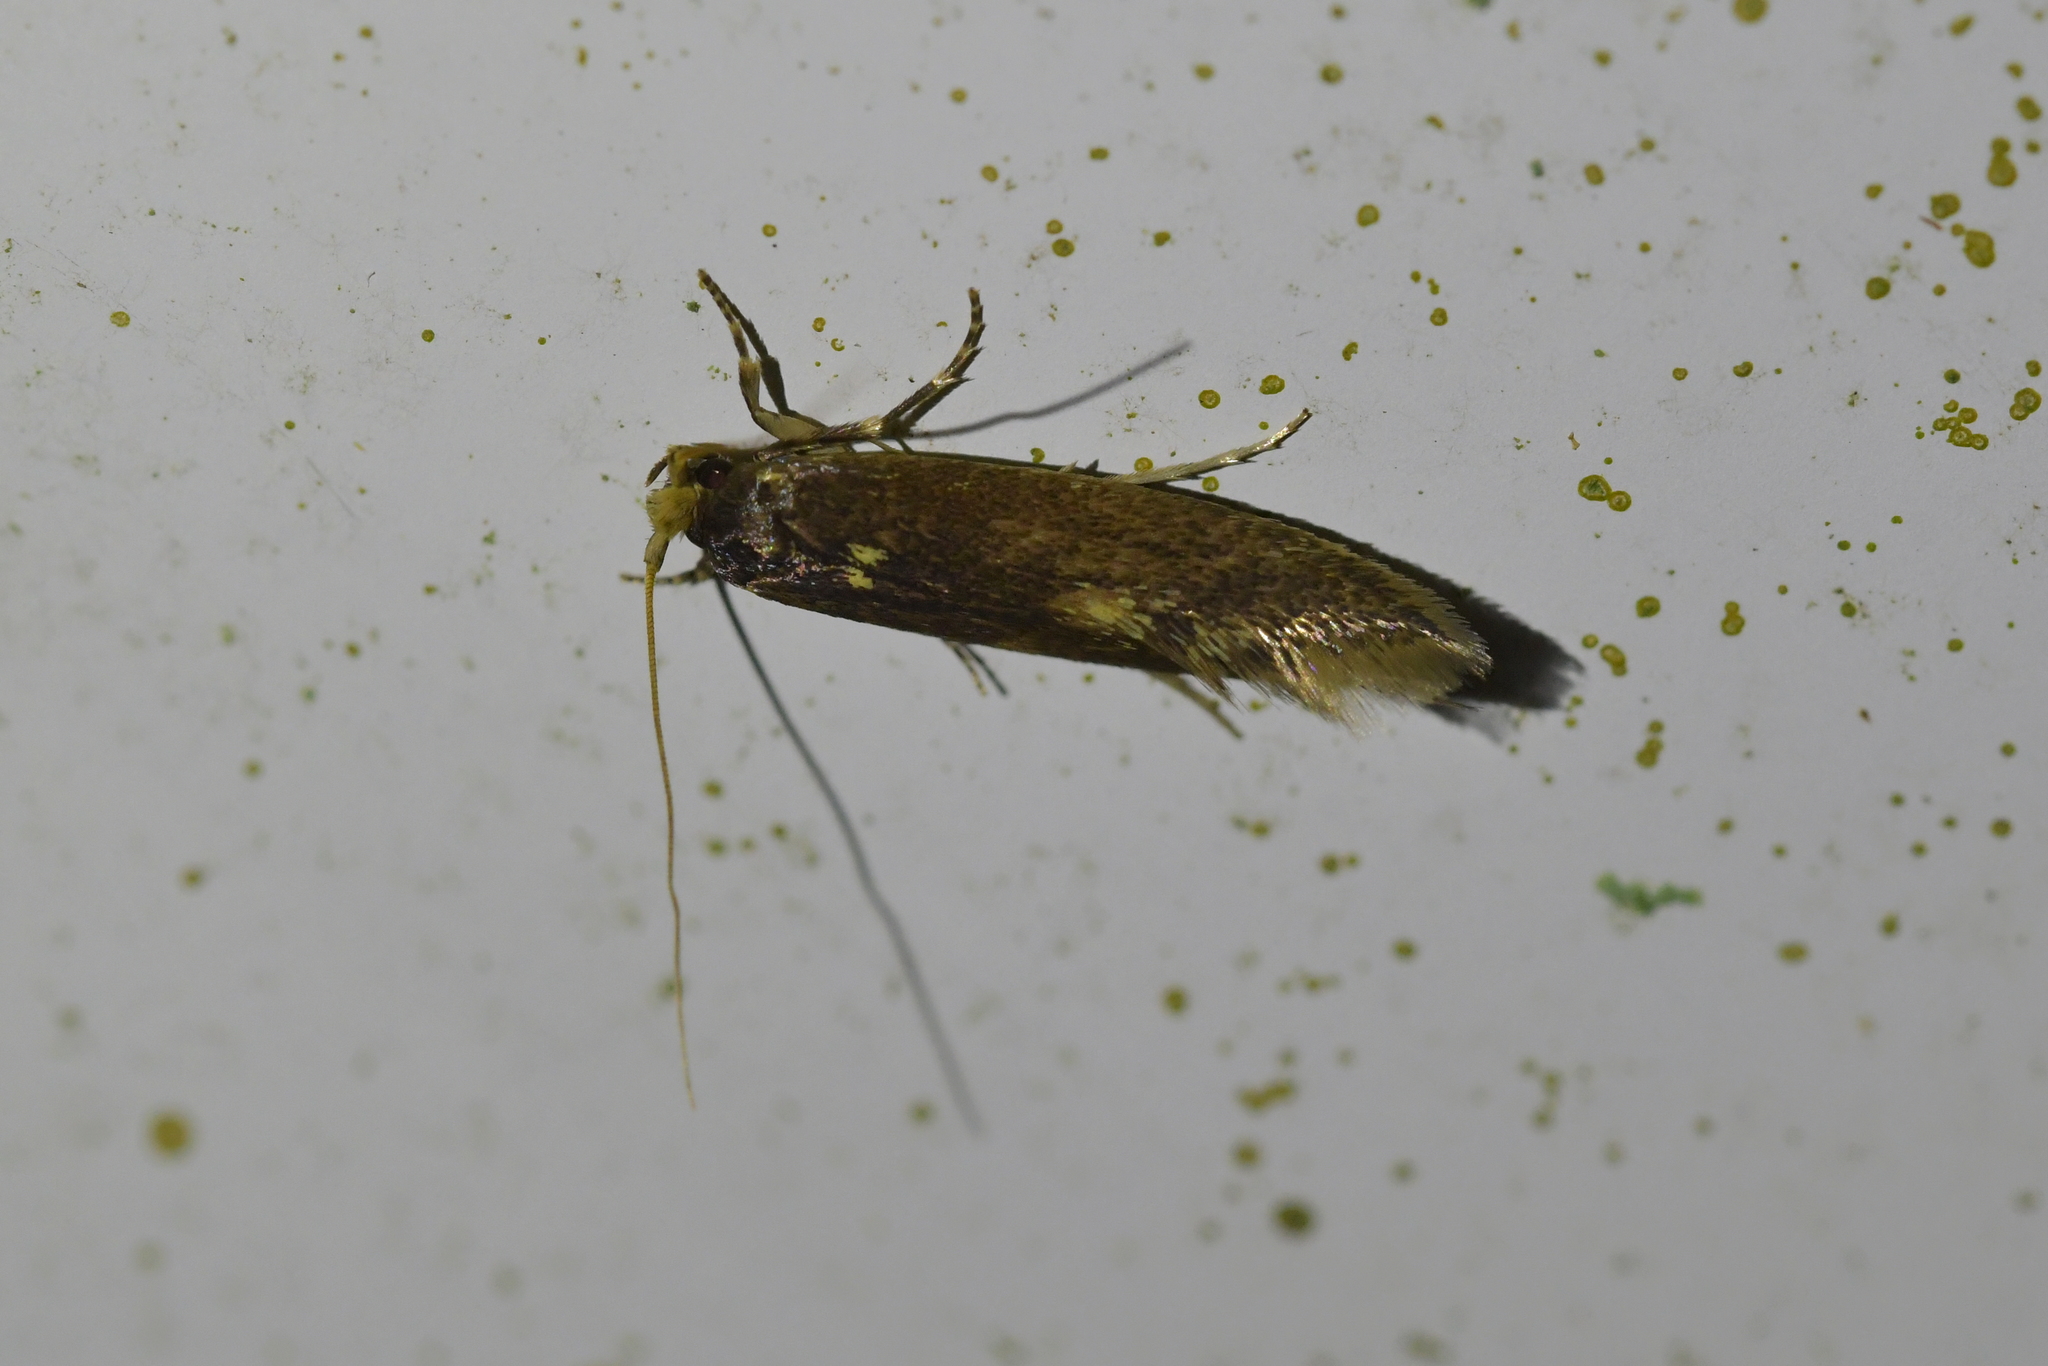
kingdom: Animalia
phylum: Arthropoda
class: Insecta
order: Lepidoptera
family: Tineidae
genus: Opogona
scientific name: Opogona omoscopa
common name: Moth
